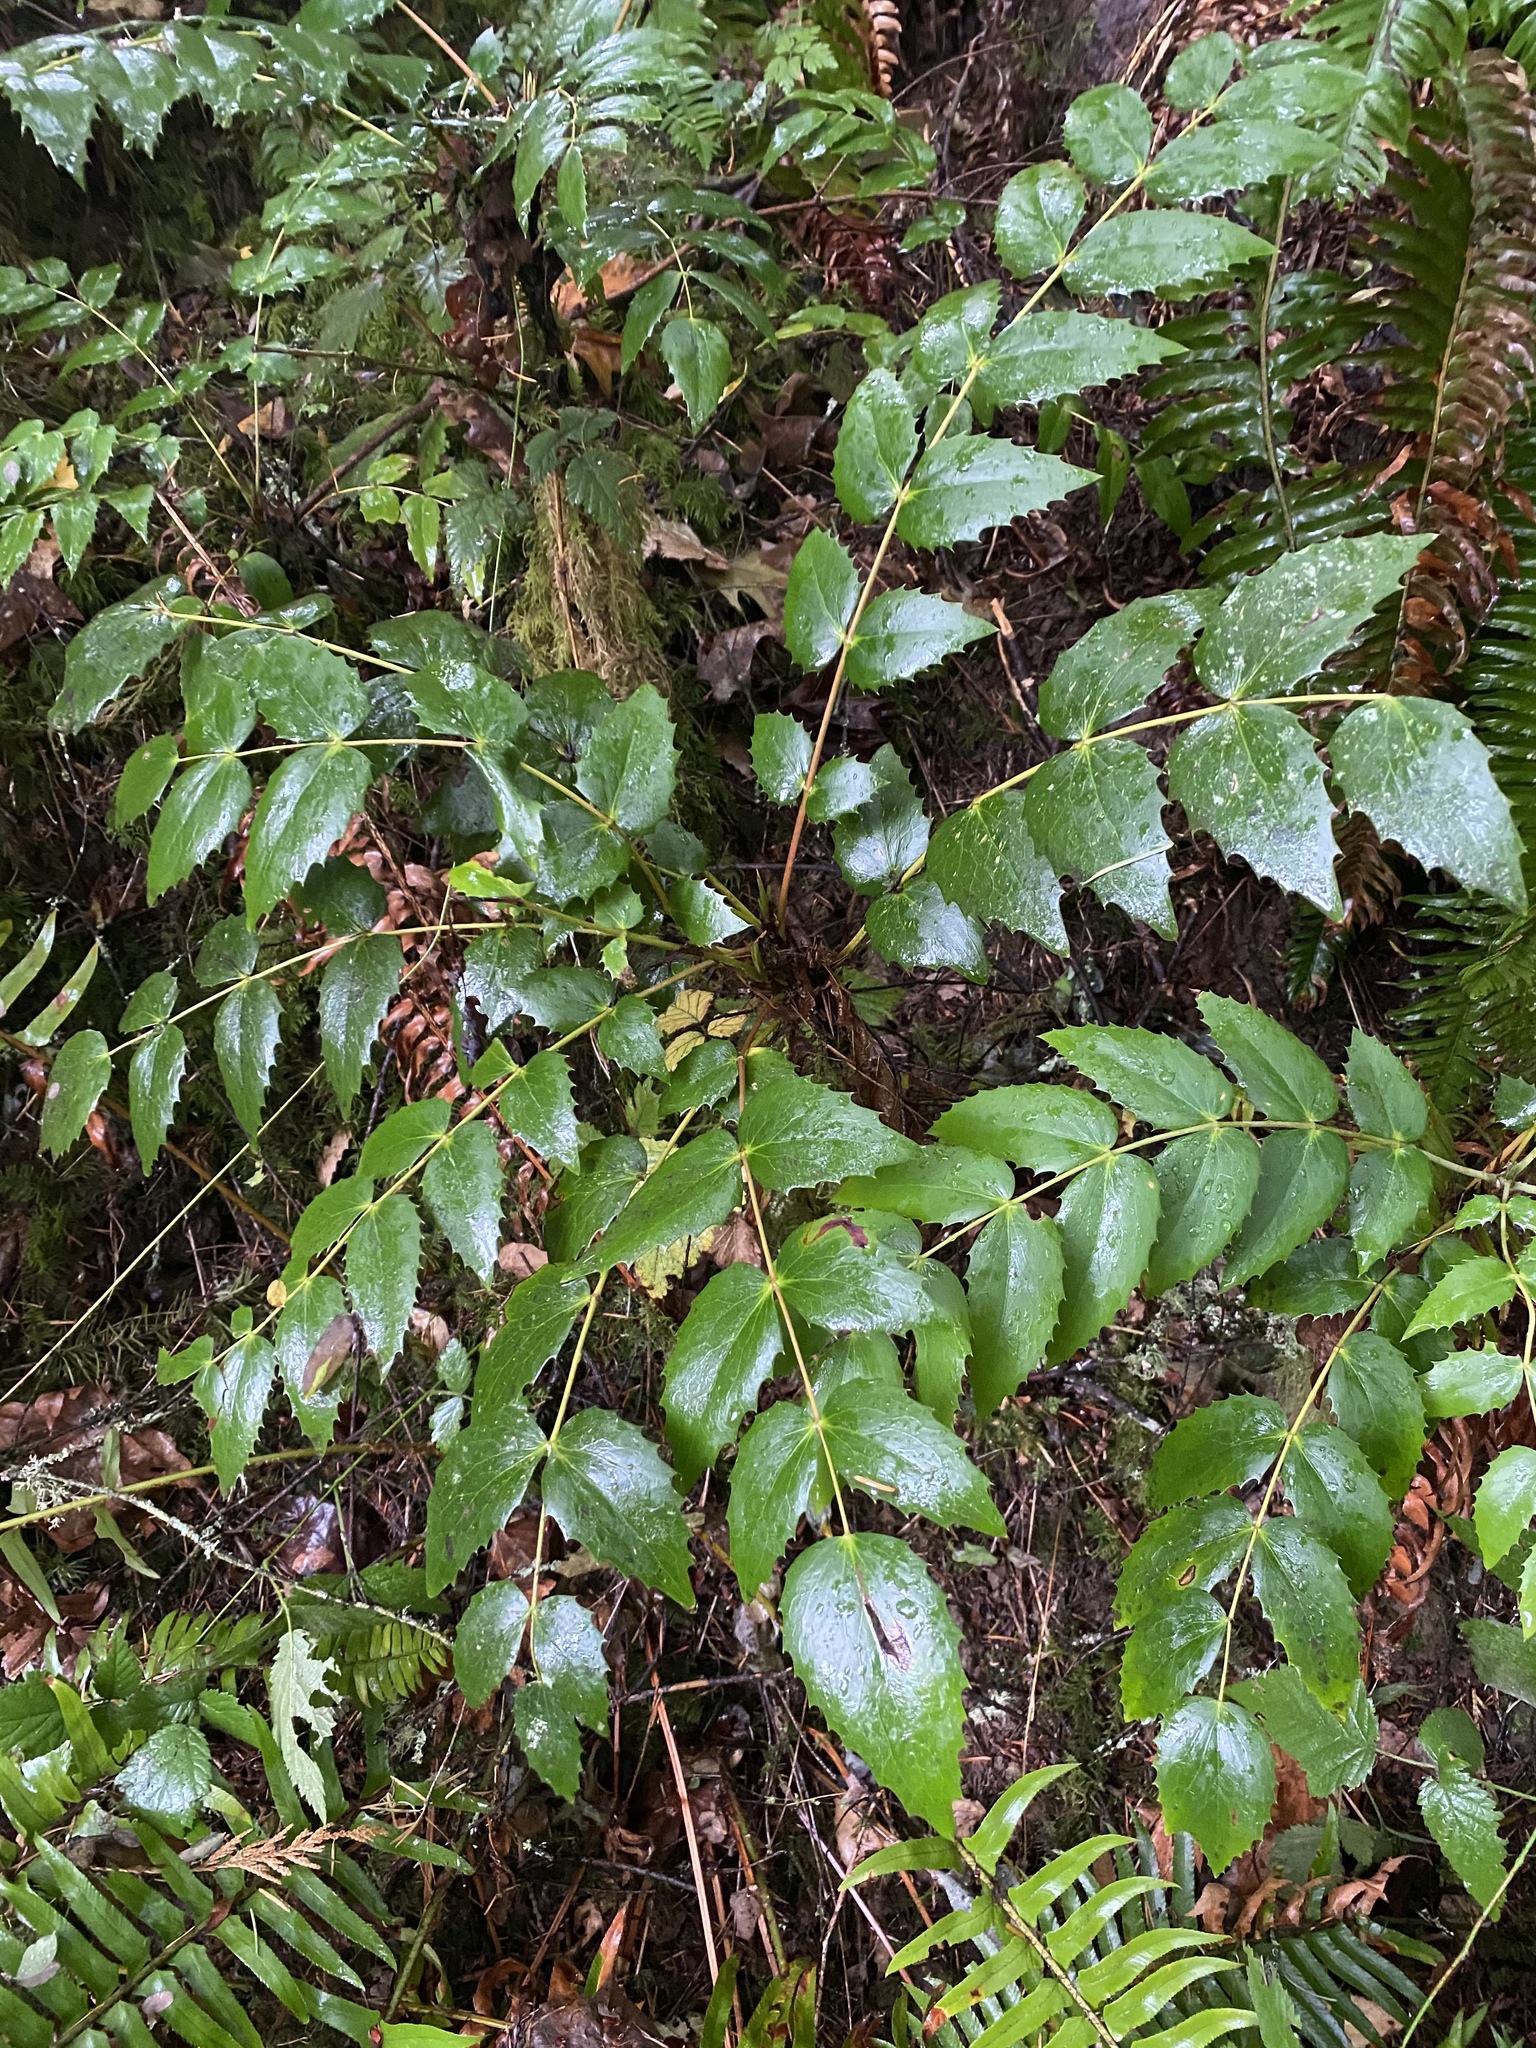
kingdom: Plantae
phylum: Tracheophyta
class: Magnoliopsida
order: Ranunculales
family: Berberidaceae
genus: Mahonia
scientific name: Mahonia nervosa
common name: Cascade oregon-grape
